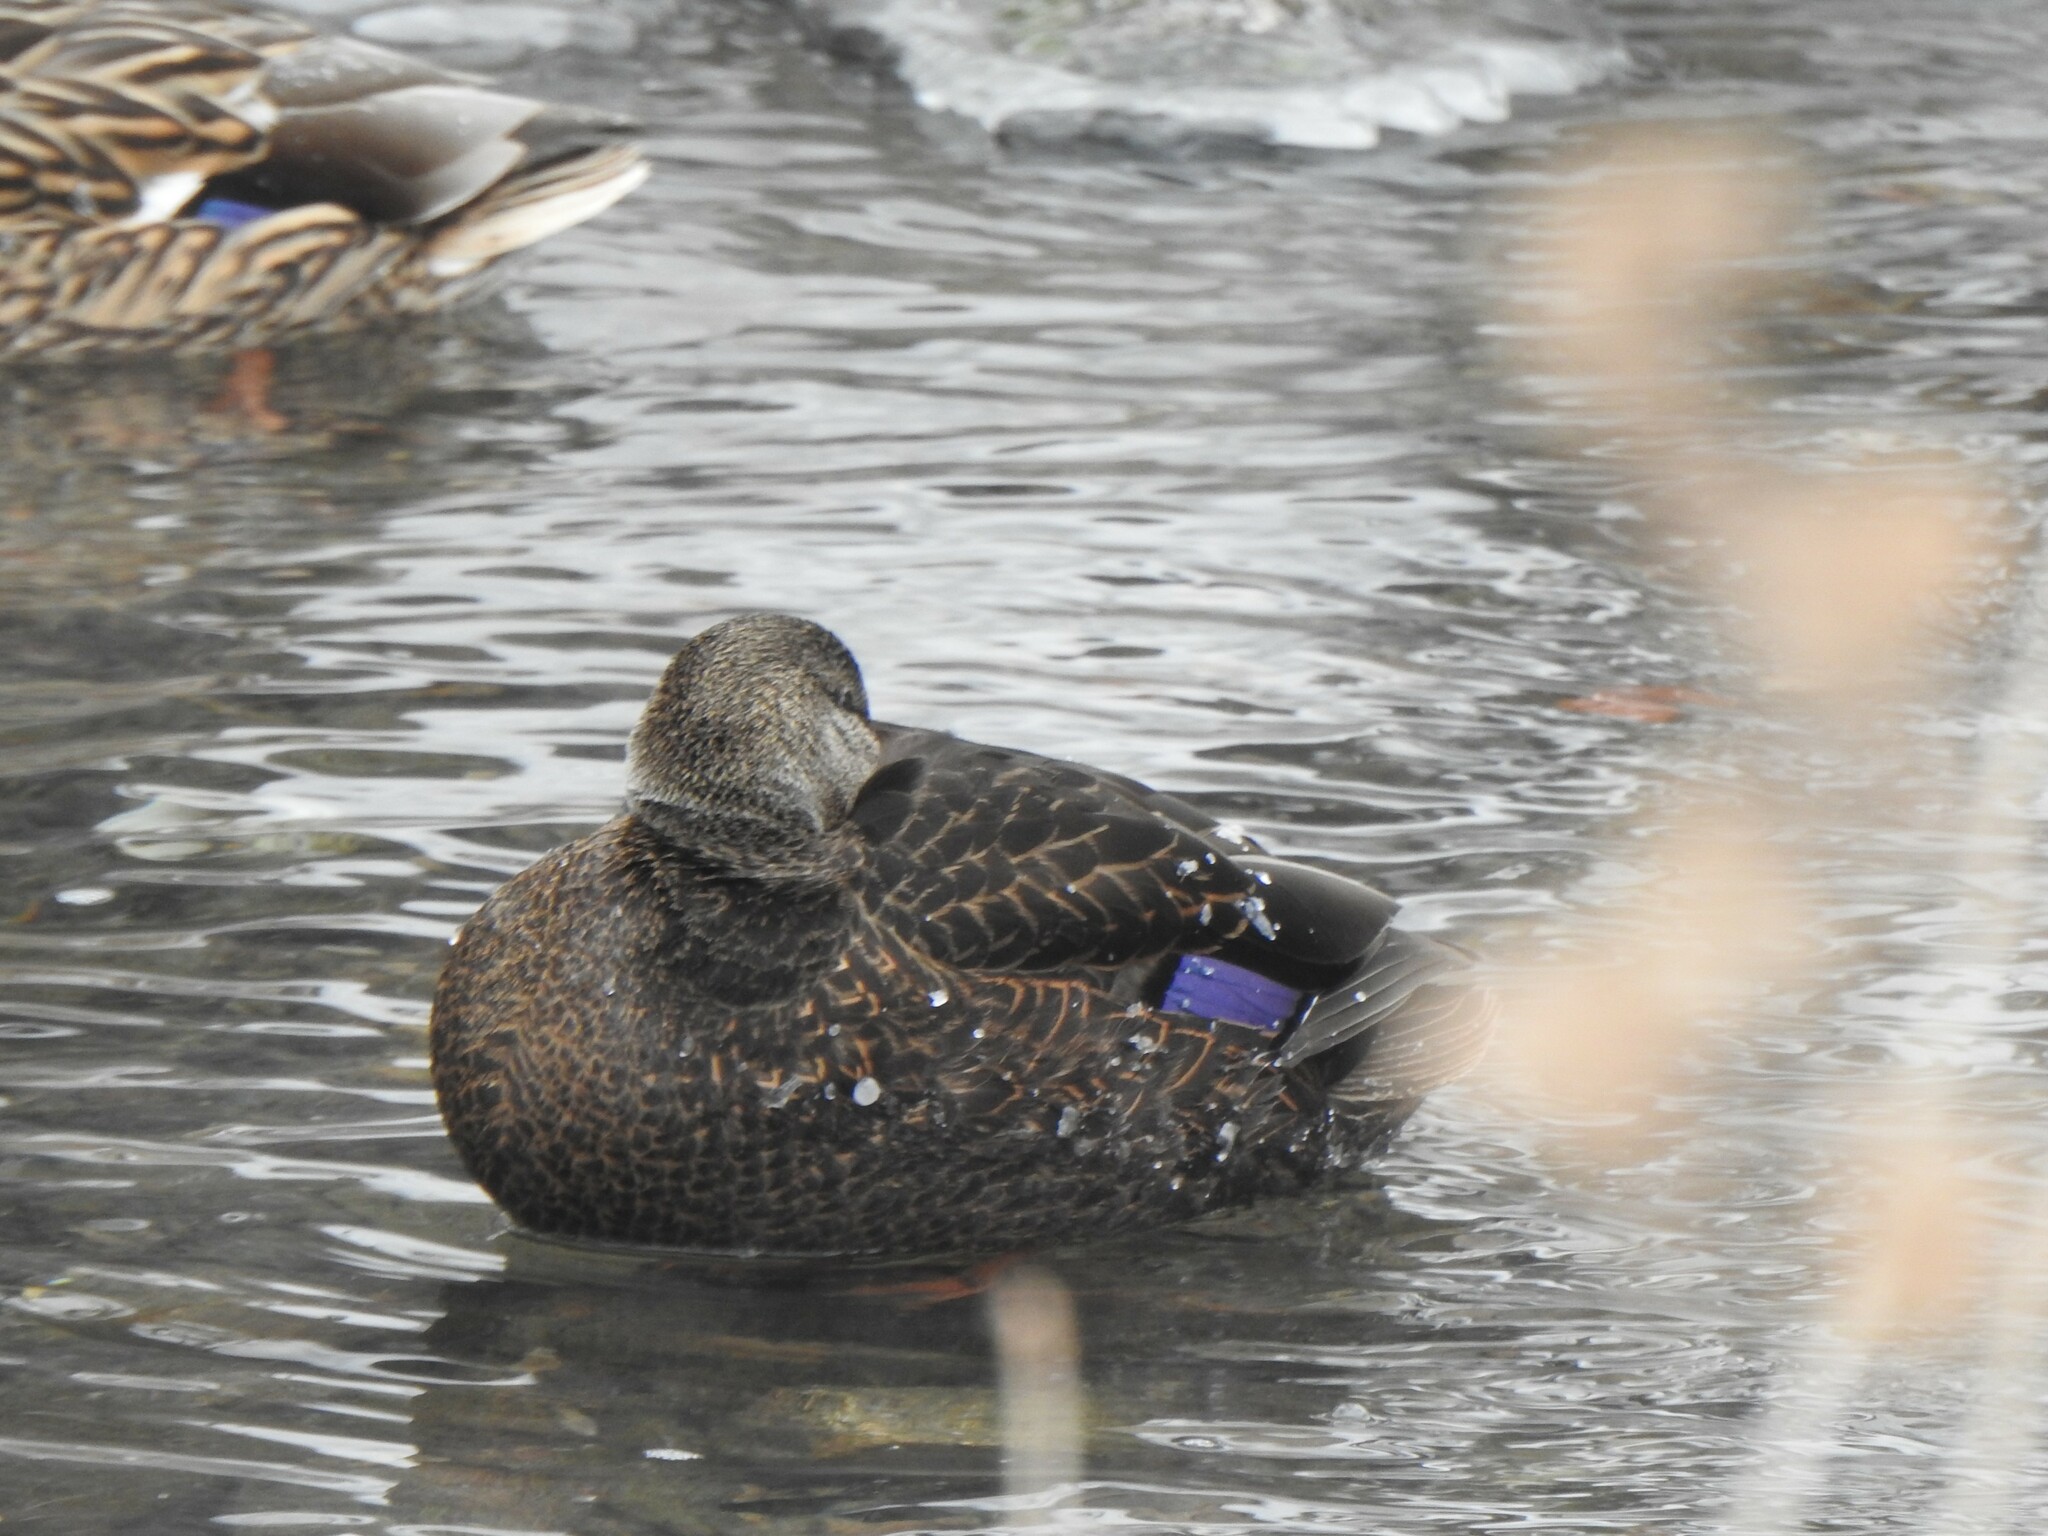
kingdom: Animalia
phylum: Chordata
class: Aves
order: Anseriformes
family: Anatidae
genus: Anas
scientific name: Anas rubripes
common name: American black duck
